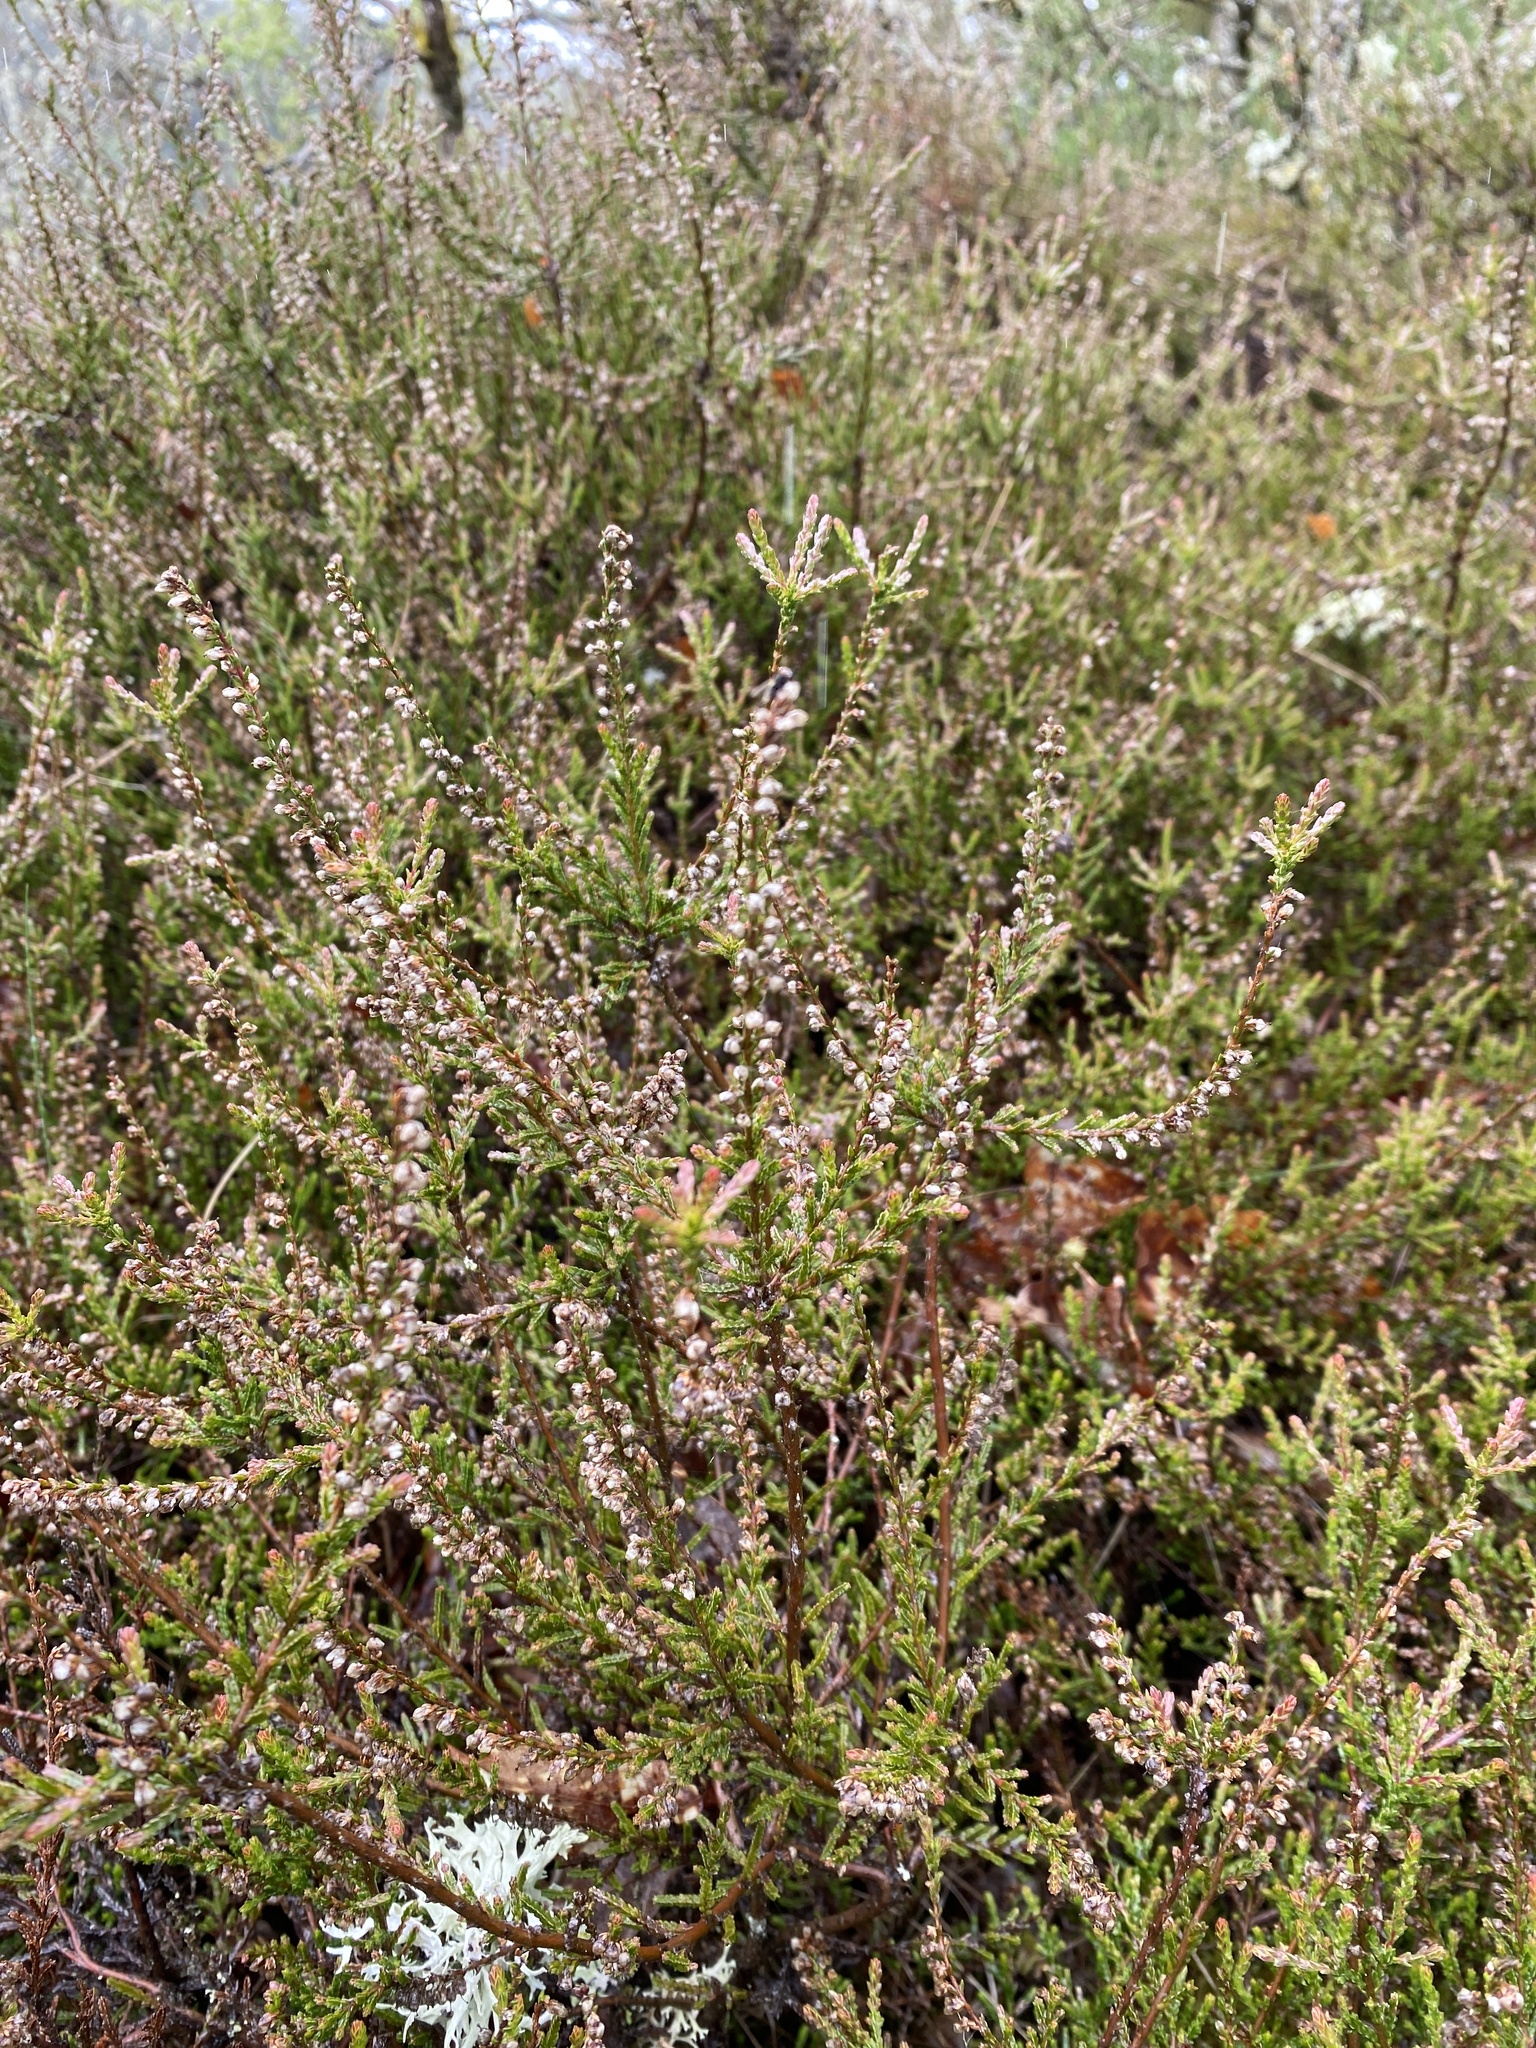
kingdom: Plantae
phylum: Tracheophyta
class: Magnoliopsida
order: Ericales
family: Ericaceae
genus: Calluna
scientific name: Calluna vulgaris
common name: Heather
